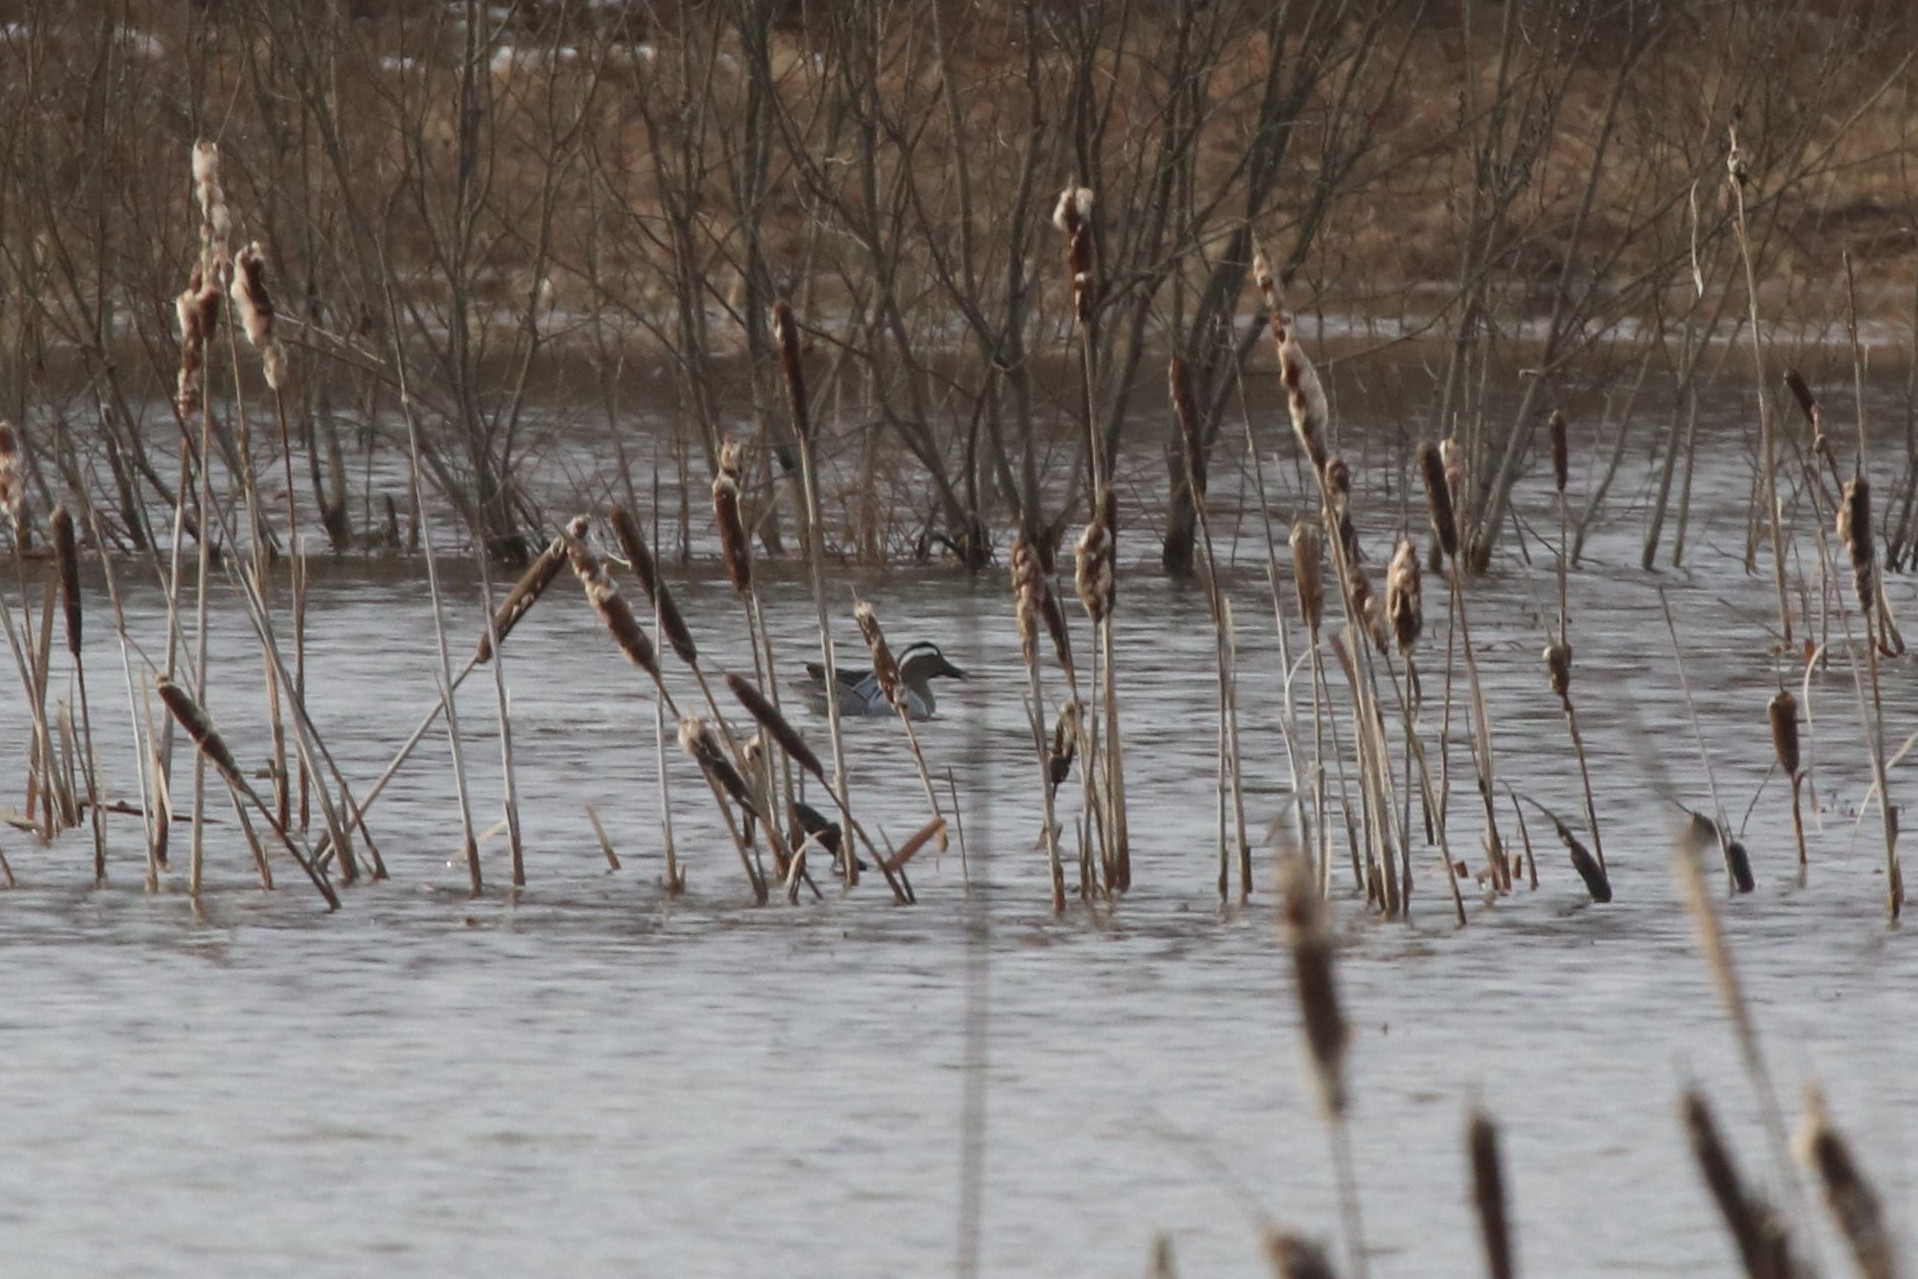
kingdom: Animalia
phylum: Chordata
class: Aves
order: Anseriformes
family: Anatidae
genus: Spatula
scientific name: Spatula querquedula
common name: Garganey
